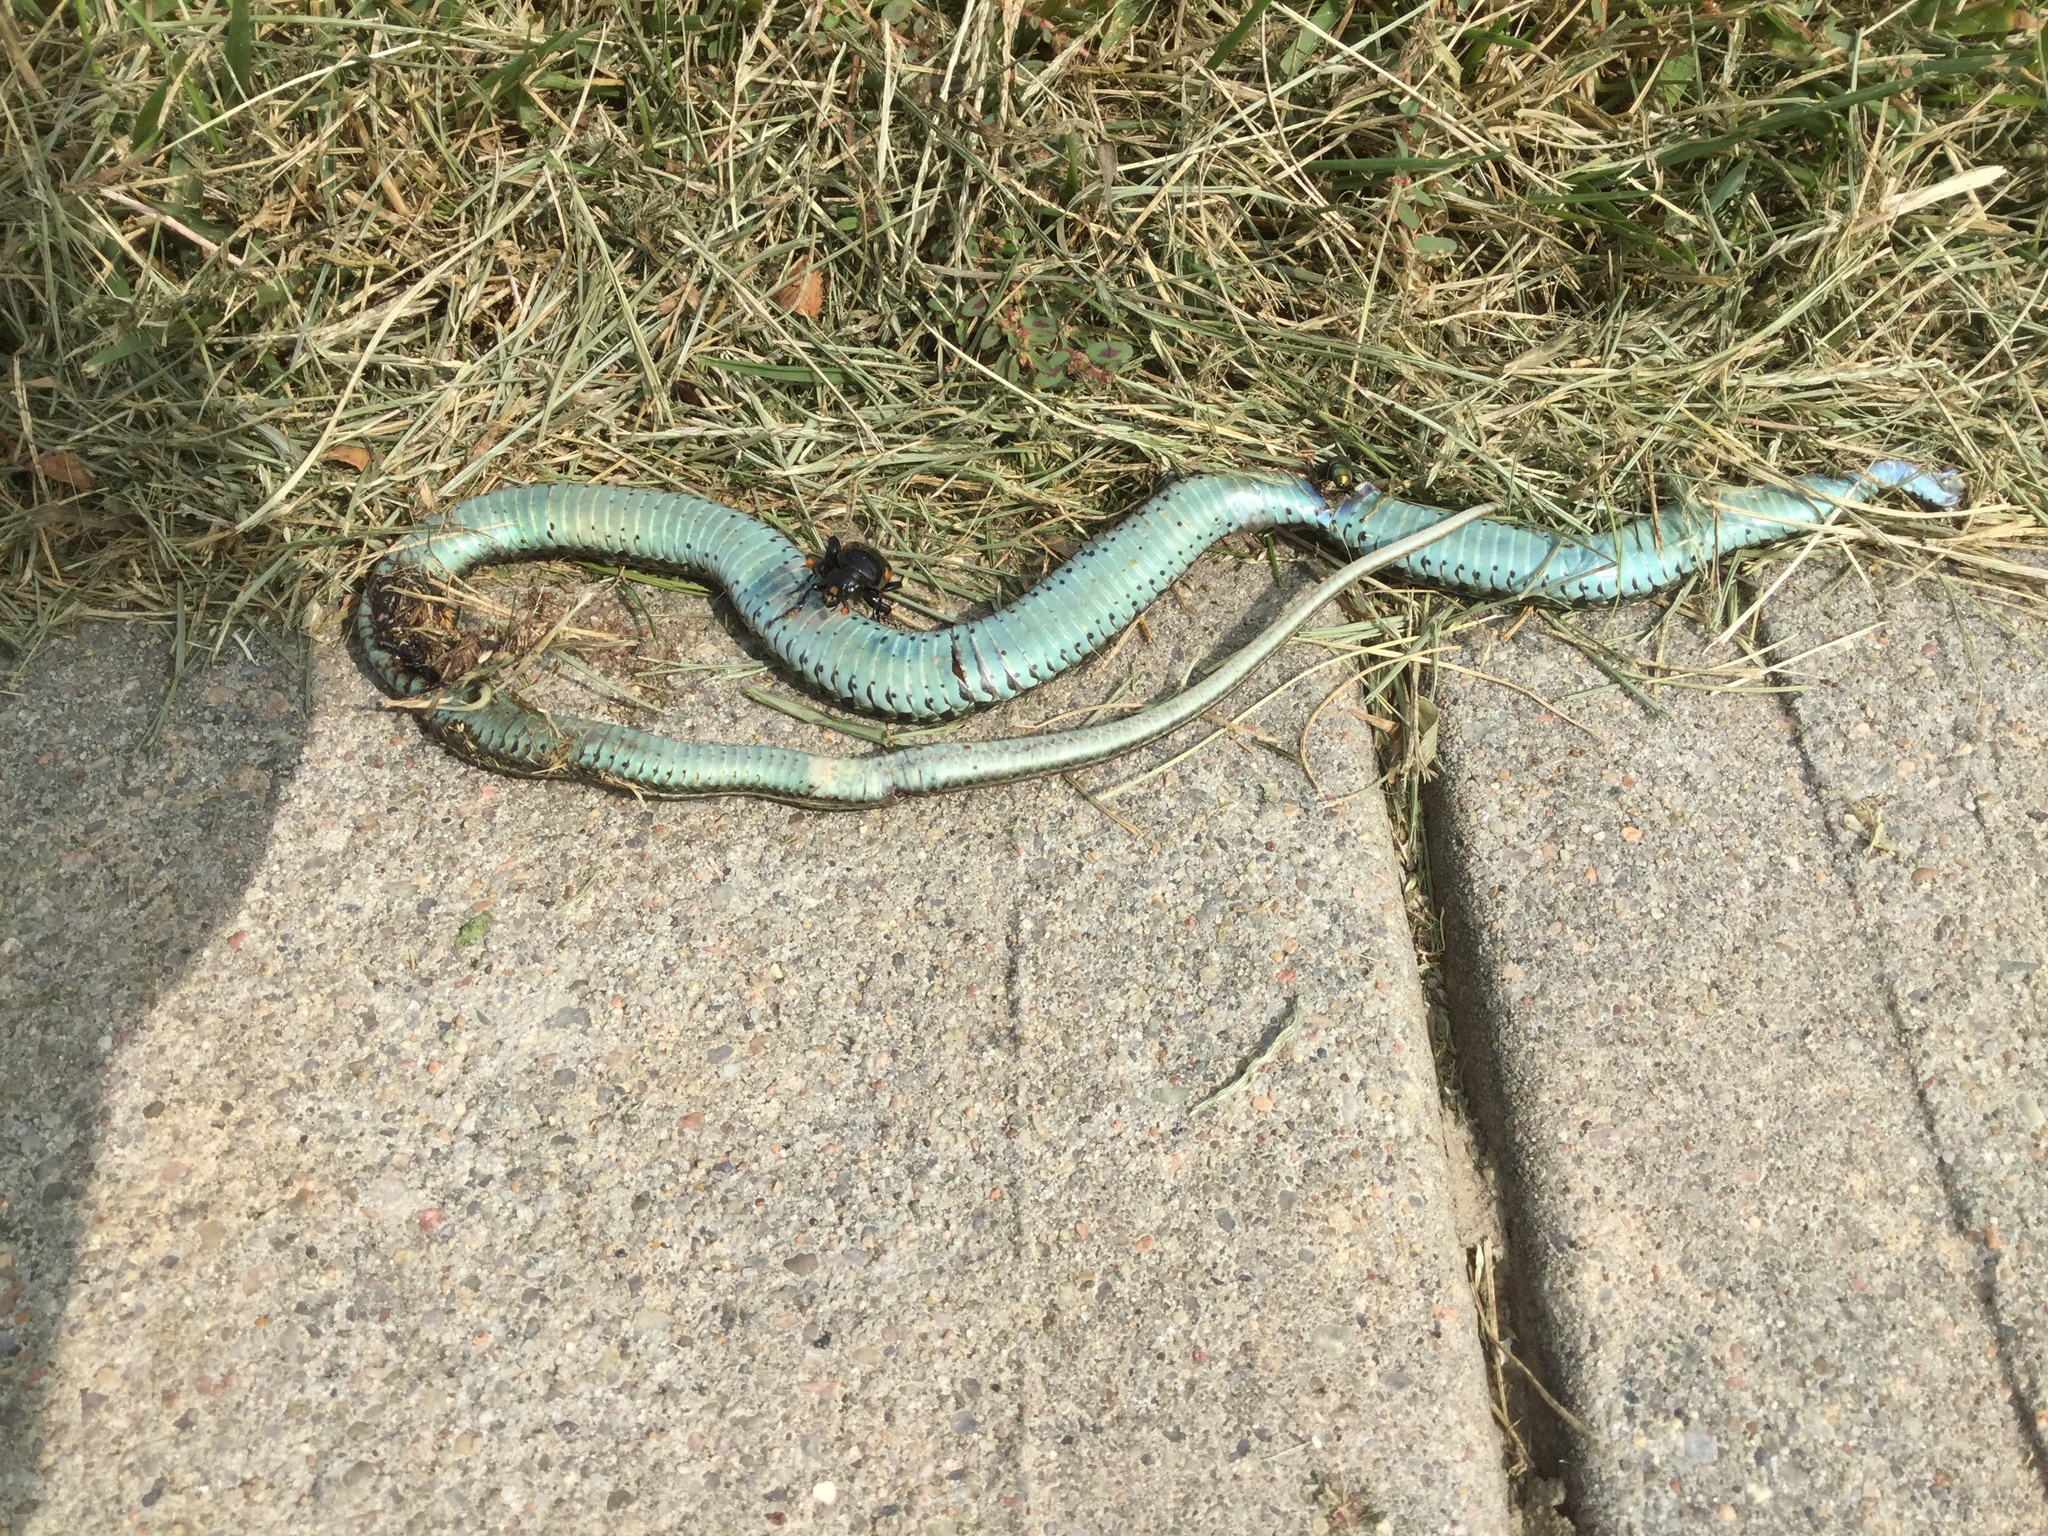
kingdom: Animalia
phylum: Chordata
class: Squamata
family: Colubridae
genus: Thamnophis
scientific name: Thamnophis radix
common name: Plains garter snake
